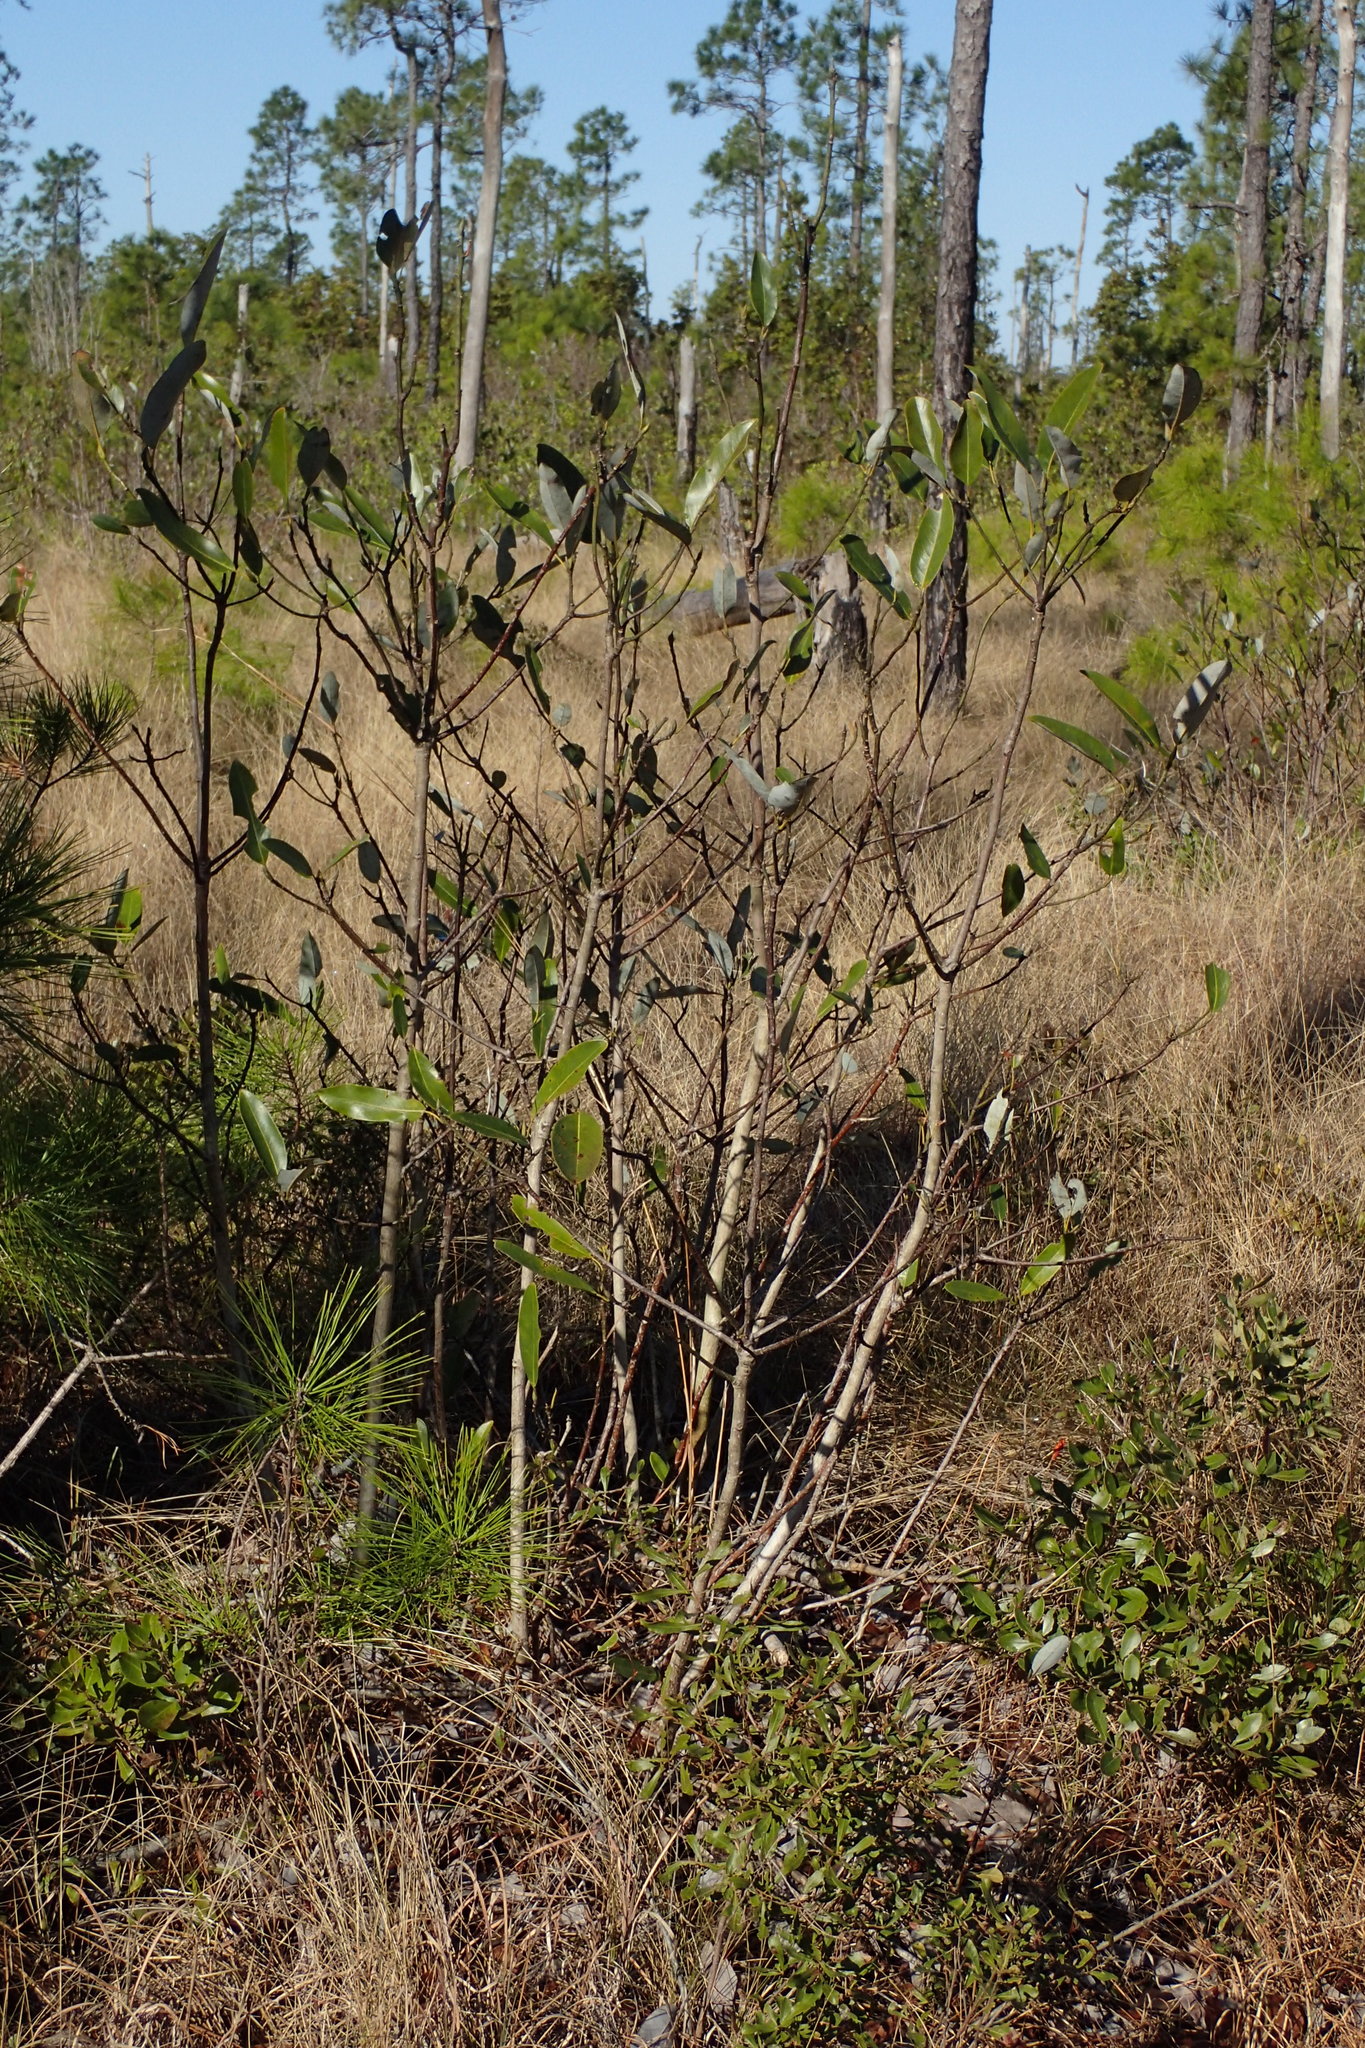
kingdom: Plantae
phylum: Tracheophyta
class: Magnoliopsida
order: Magnoliales
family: Magnoliaceae
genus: Magnolia
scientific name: Magnolia virginiana
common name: Swamp bay
